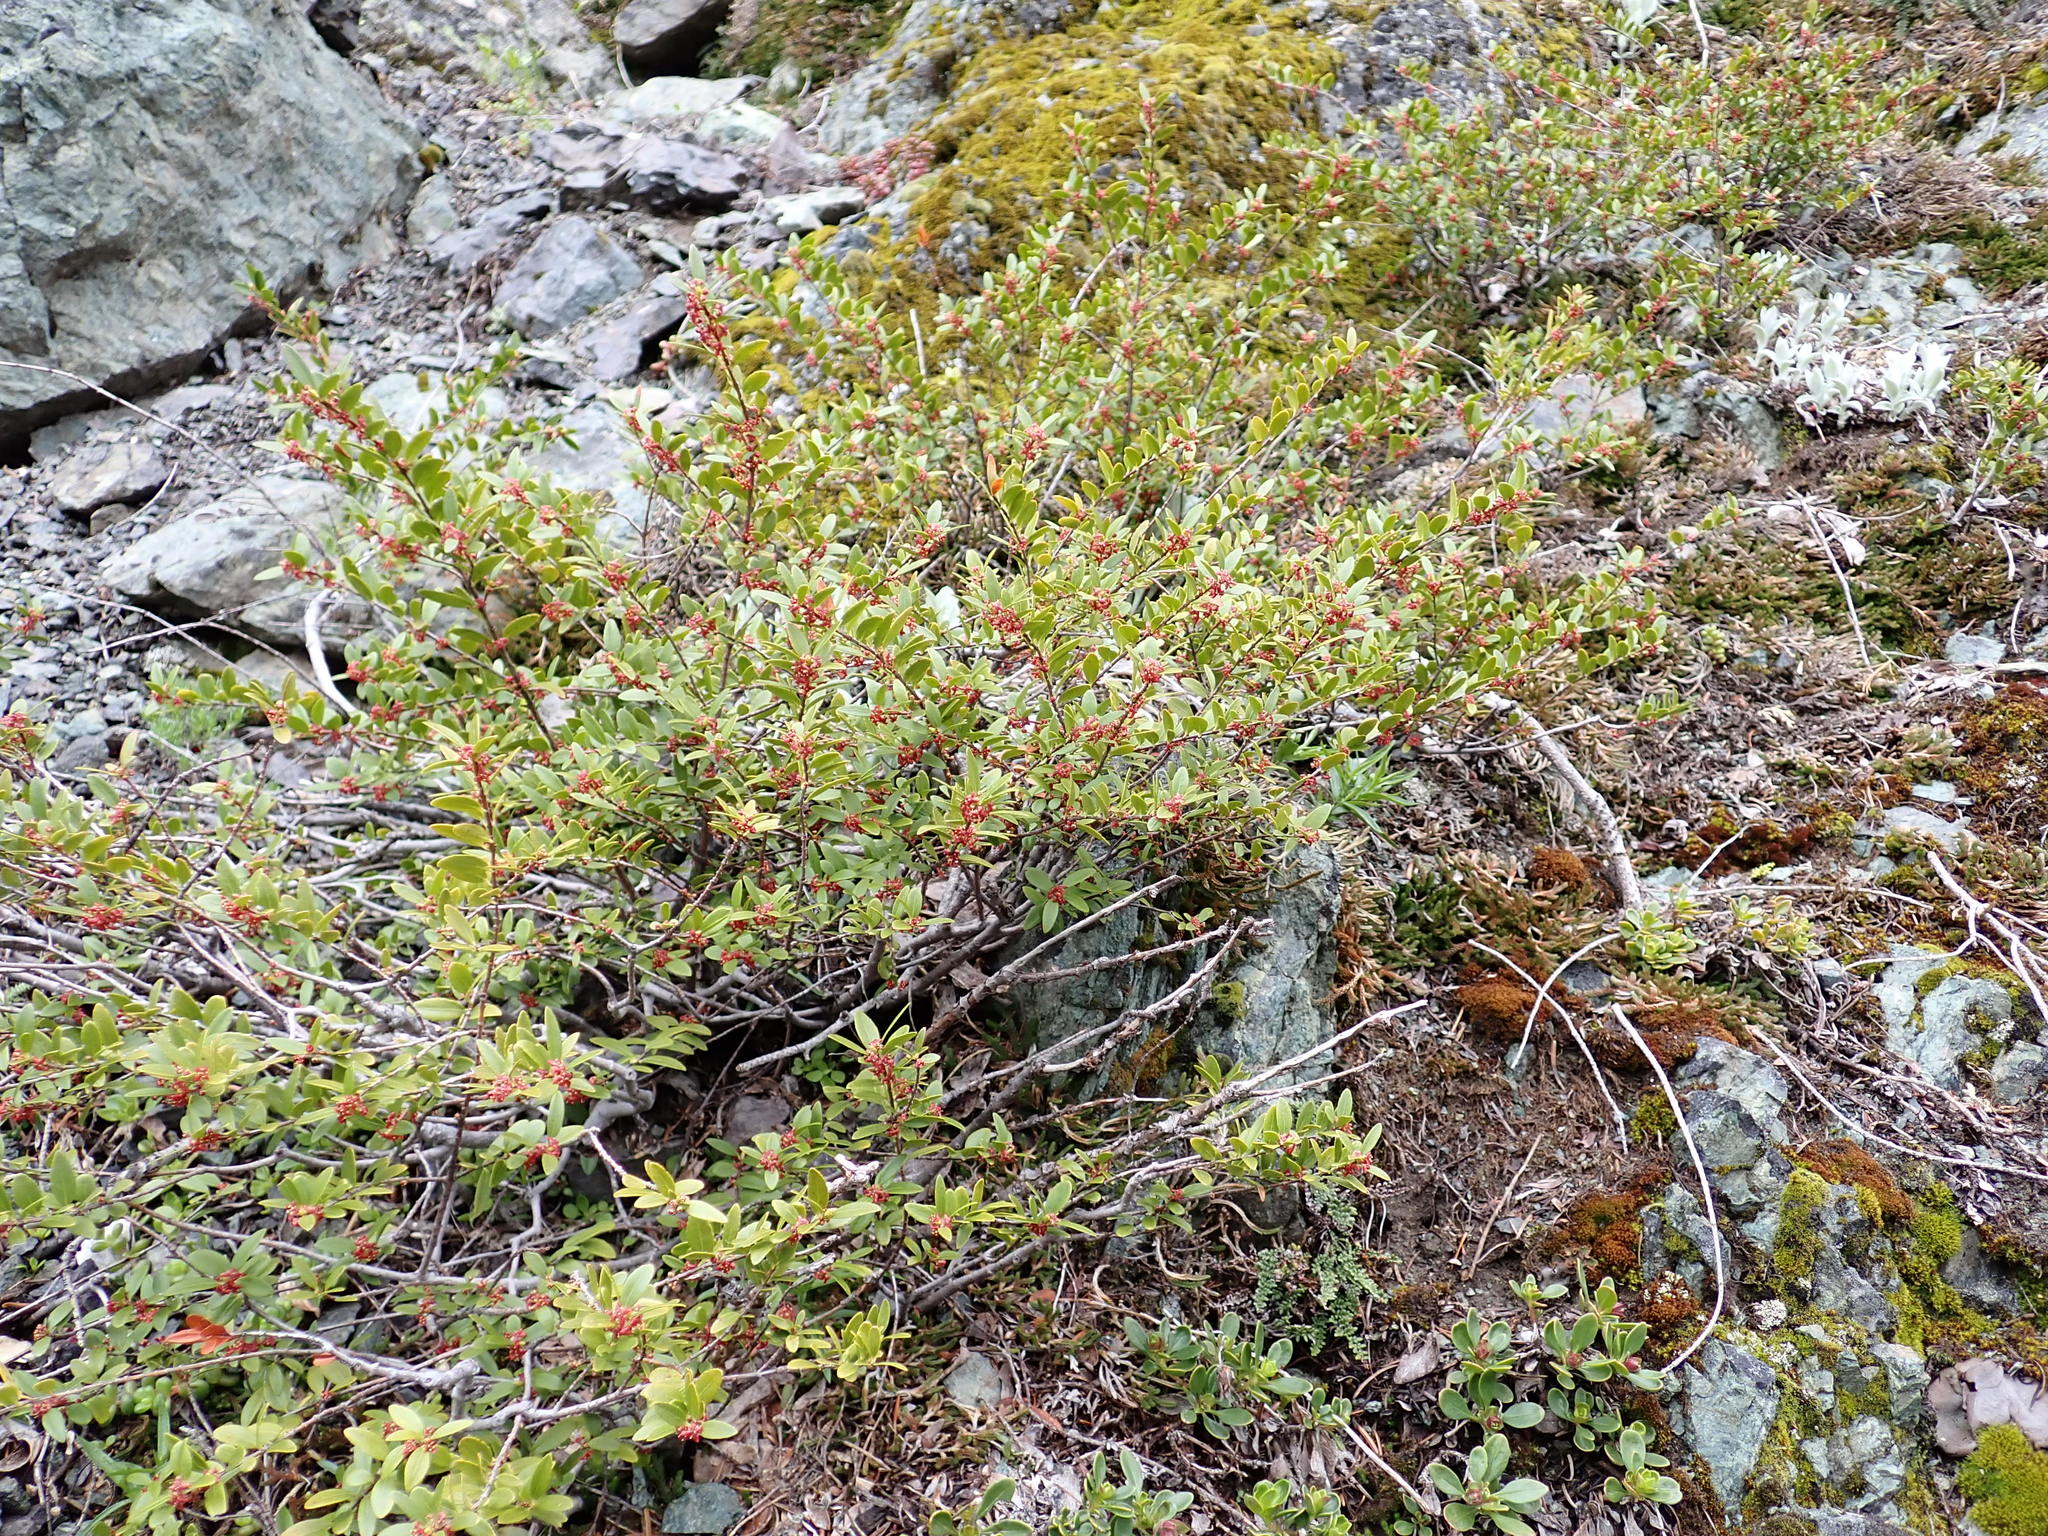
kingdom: Plantae
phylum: Tracheophyta
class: Magnoliopsida
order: Celastrales
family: Celastraceae
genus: Paxistima
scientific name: Paxistima myrsinites
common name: Mountain-lover
